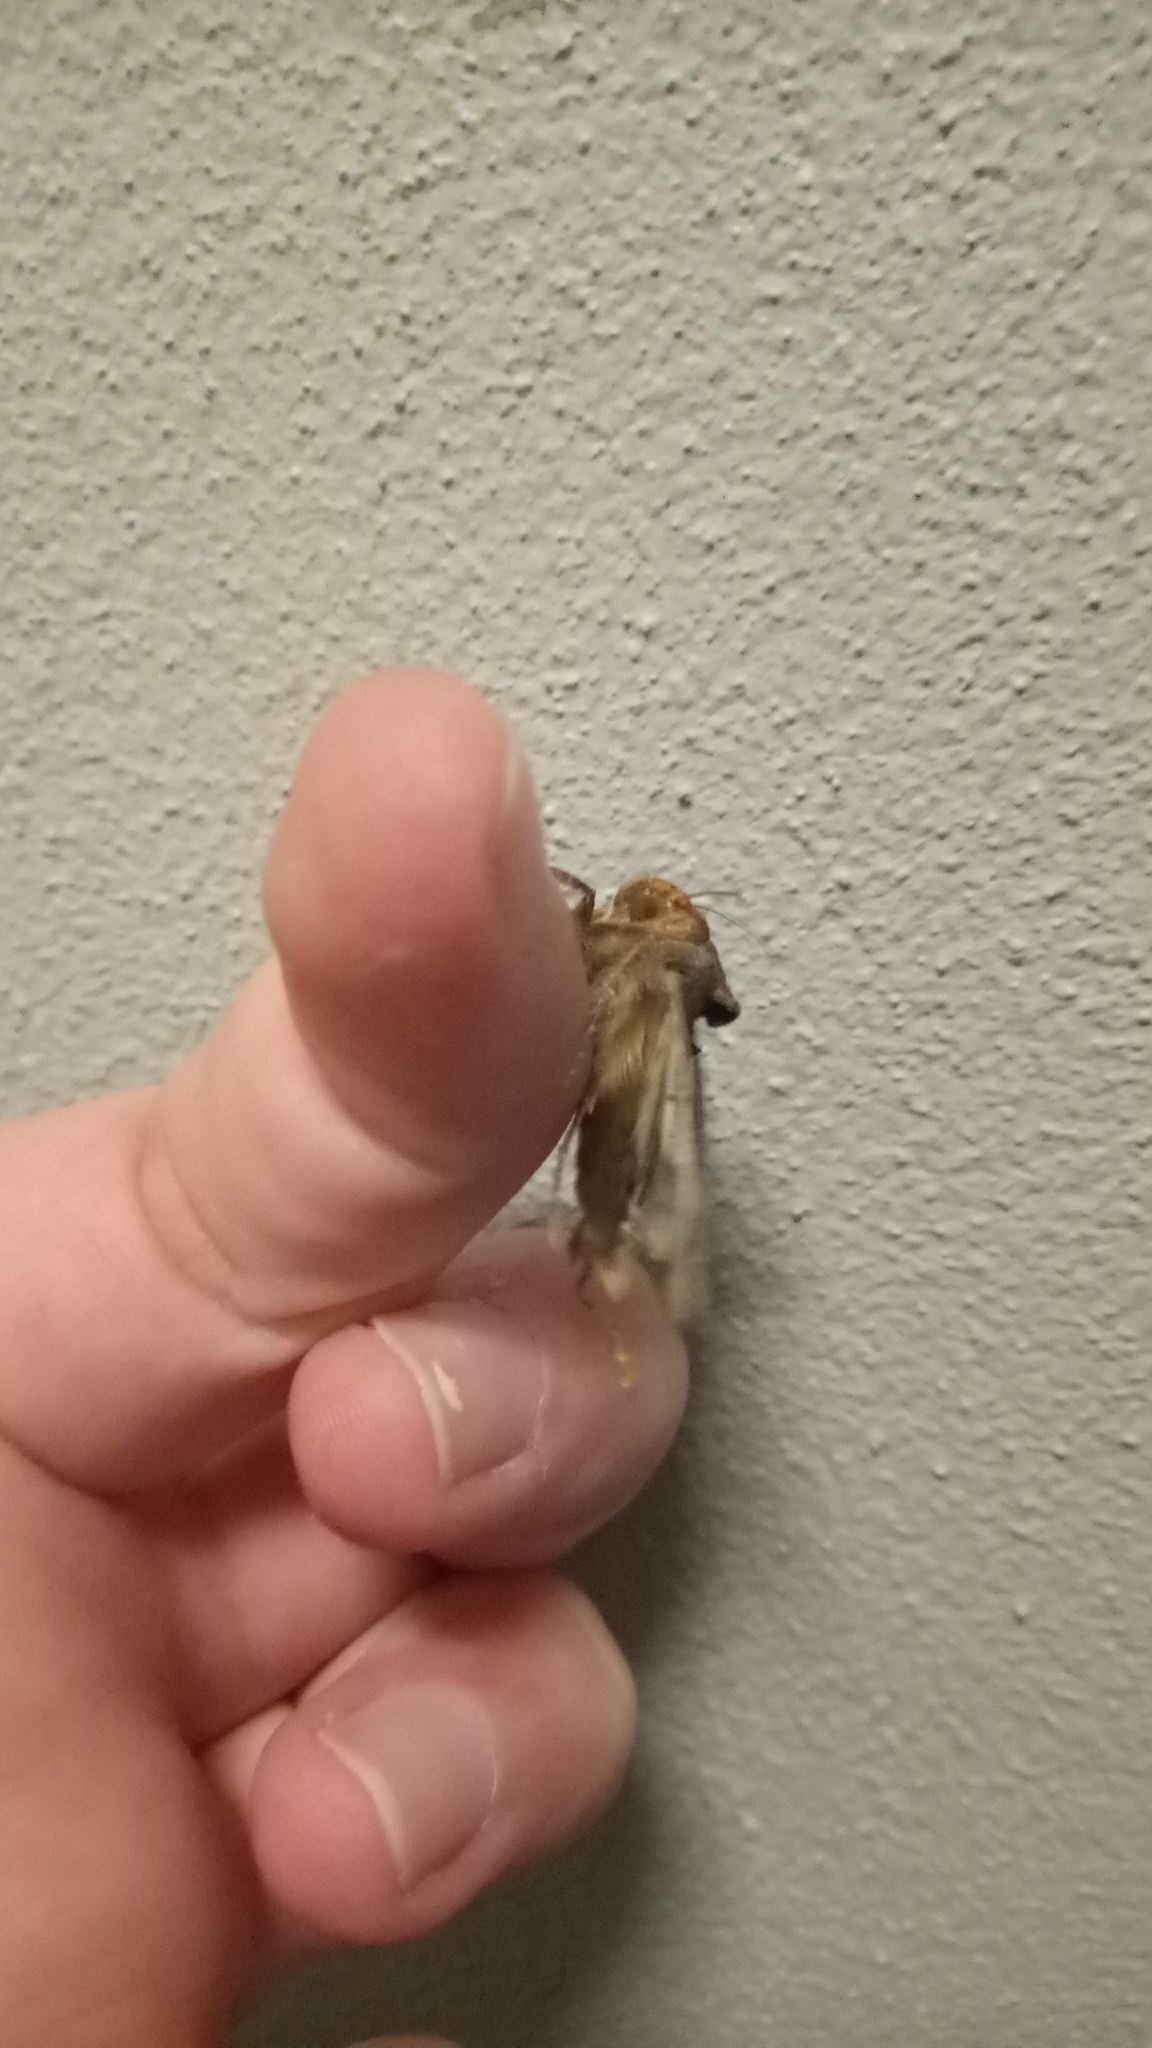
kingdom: Animalia
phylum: Arthropoda
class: Insecta
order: Lepidoptera
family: Noctuidae
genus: Thysanoplusia
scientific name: Thysanoplusia orichalcea
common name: Slender burnished brass, golden plusia
